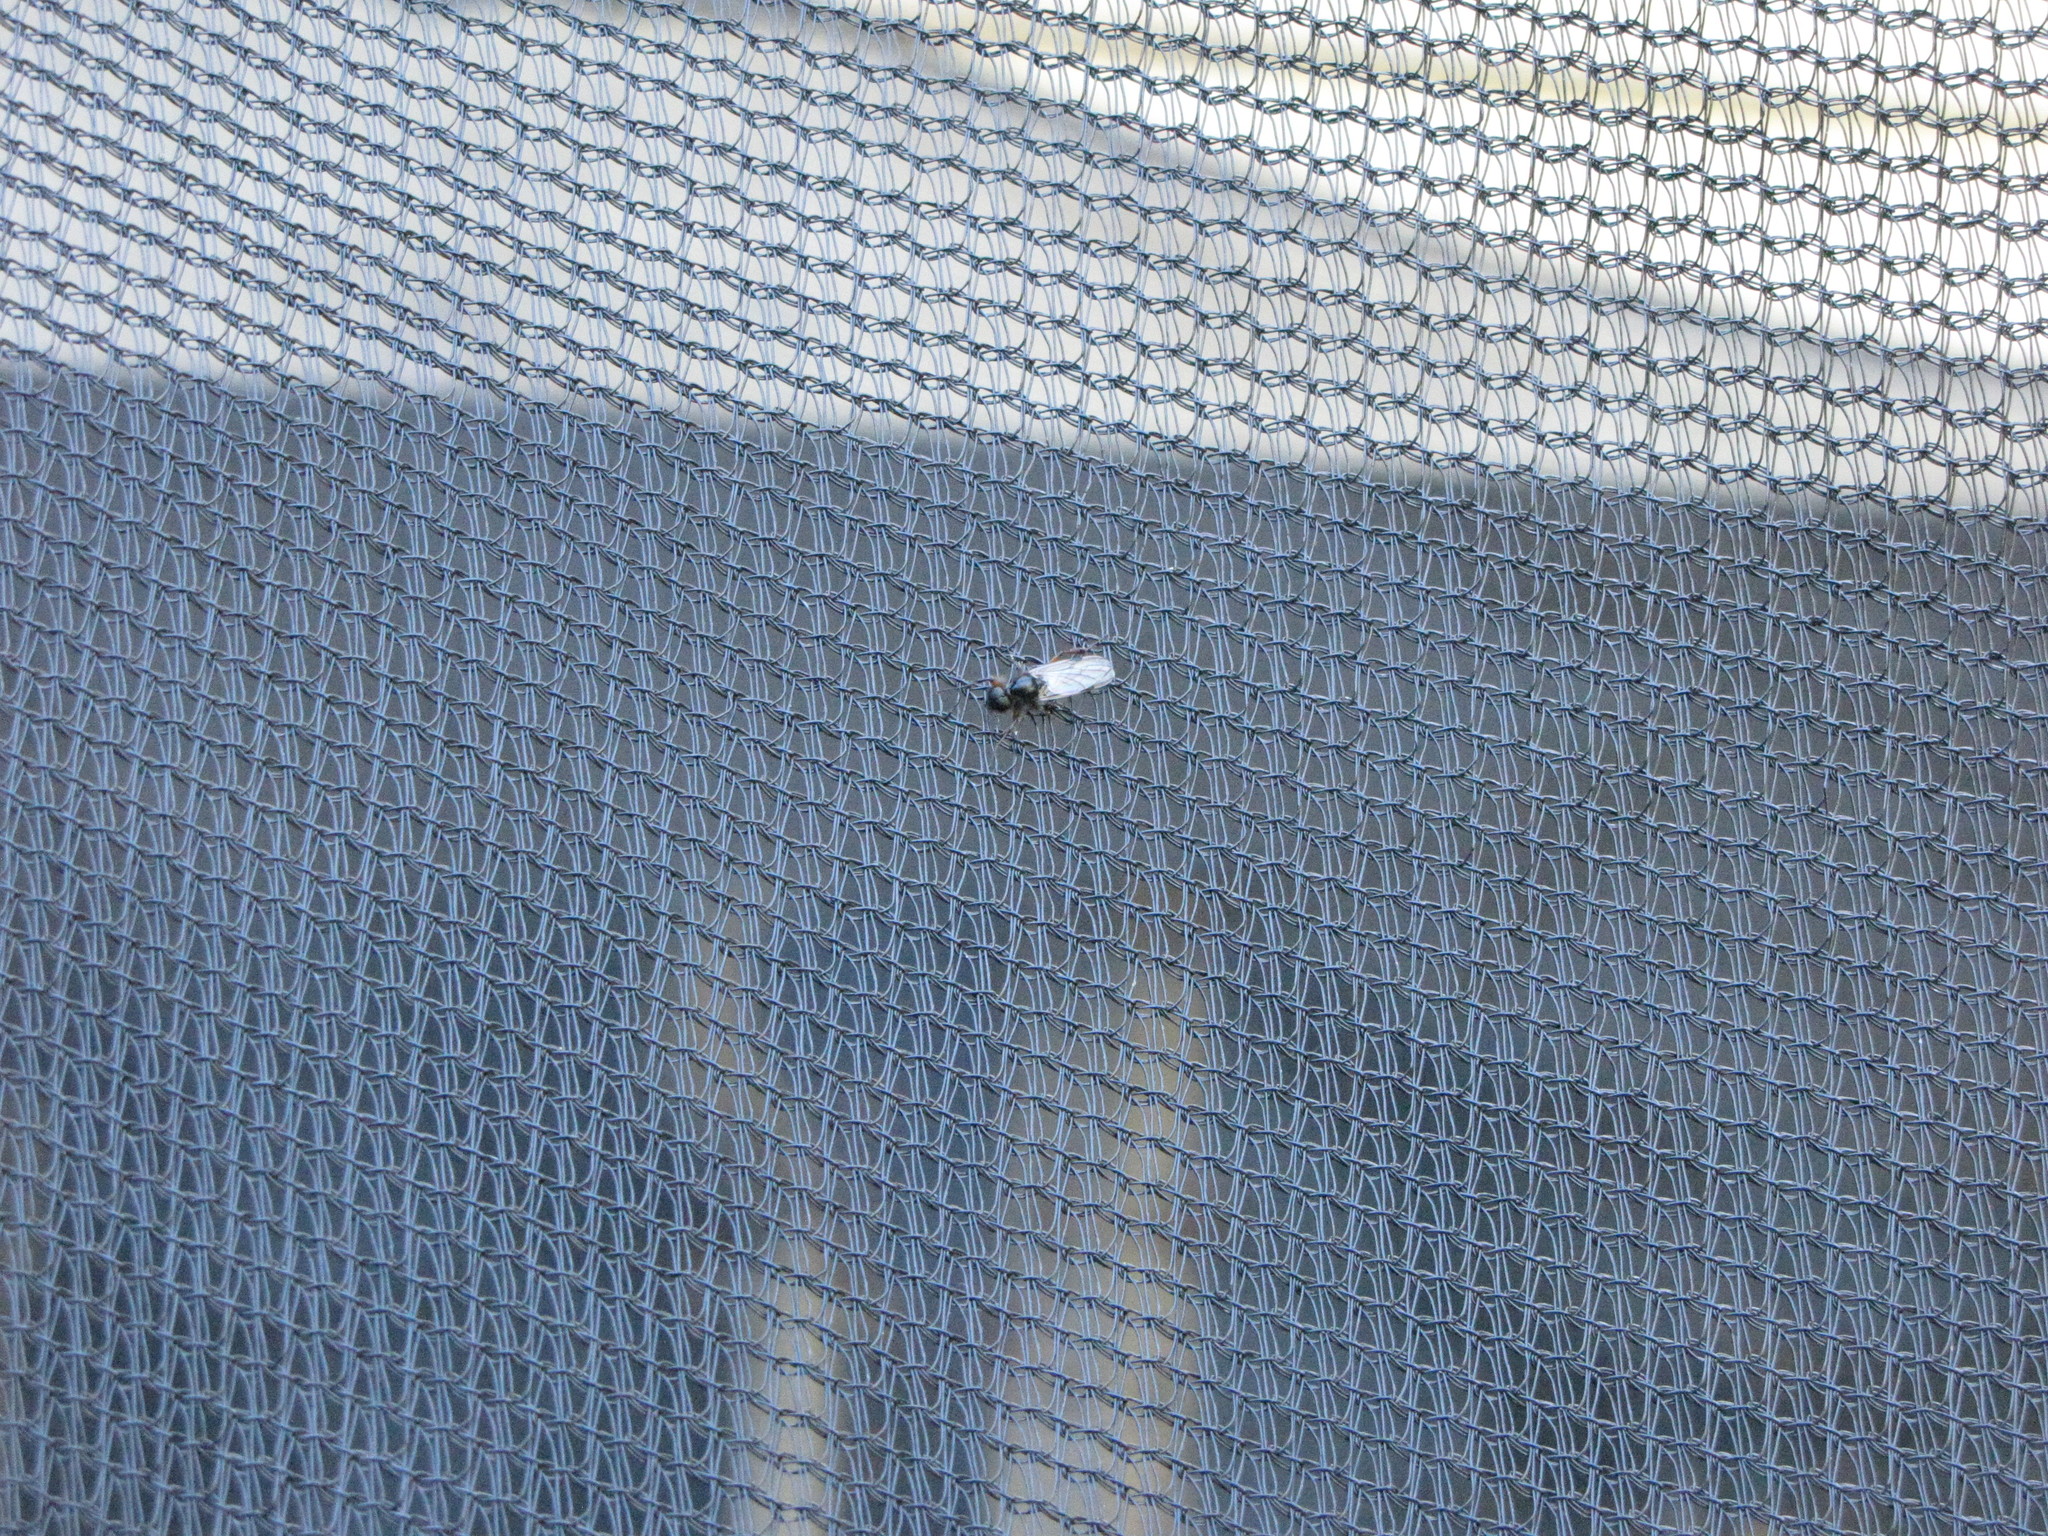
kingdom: Animalia
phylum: Arthropoda
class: Insecta
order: Diptera
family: Bibionidae
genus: Bibio
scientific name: Bibio
